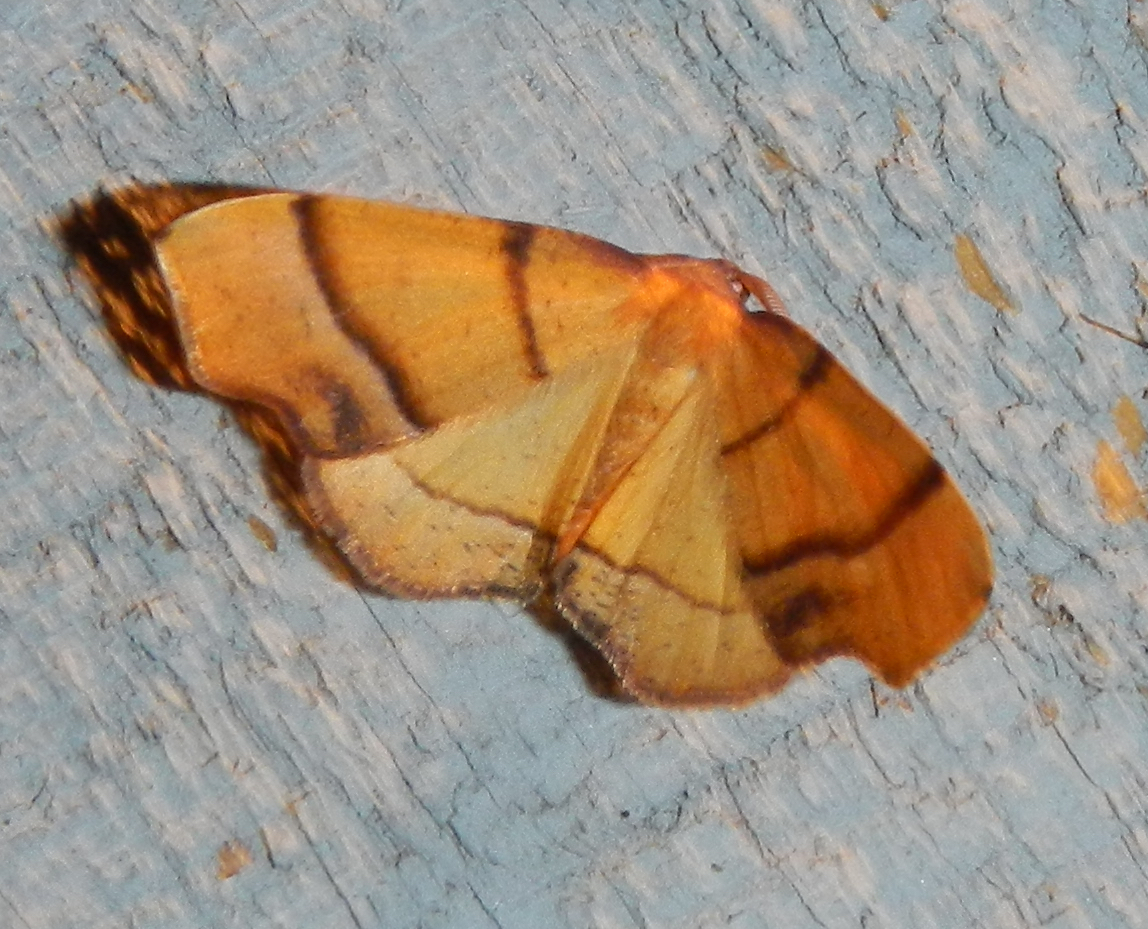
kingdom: Animalia
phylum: Arthropoda
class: Insecta
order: Lepidoptera
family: Geometridae
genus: Plagodis
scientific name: Plagodis phlogosaria
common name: Straight-lined plagodis
